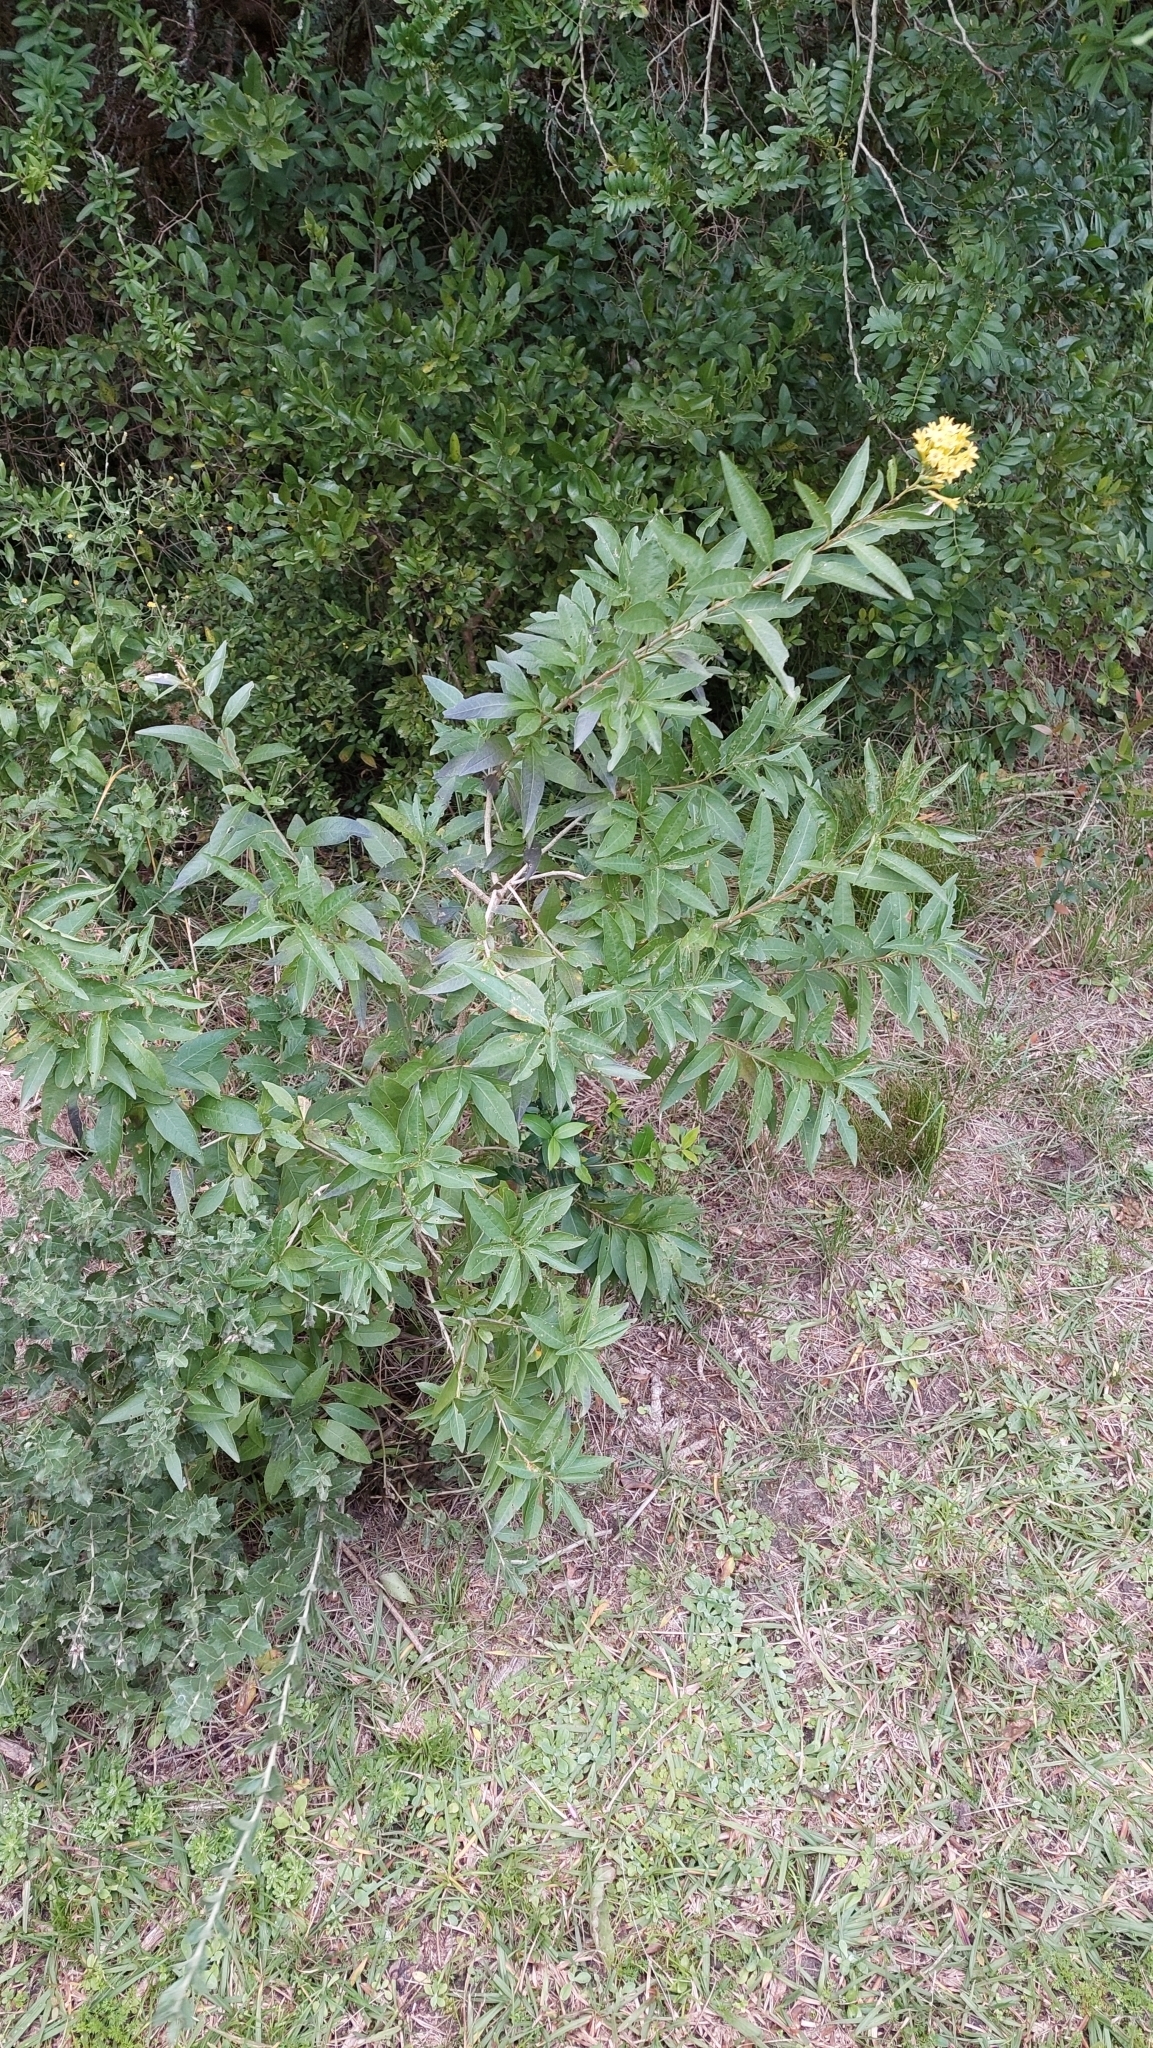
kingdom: Plantae
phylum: Tracheophyta
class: Magnoliopsida
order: Solanales
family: Solanaceae
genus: Cestrum
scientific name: Cestrum parqui
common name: Chilean cestrum
